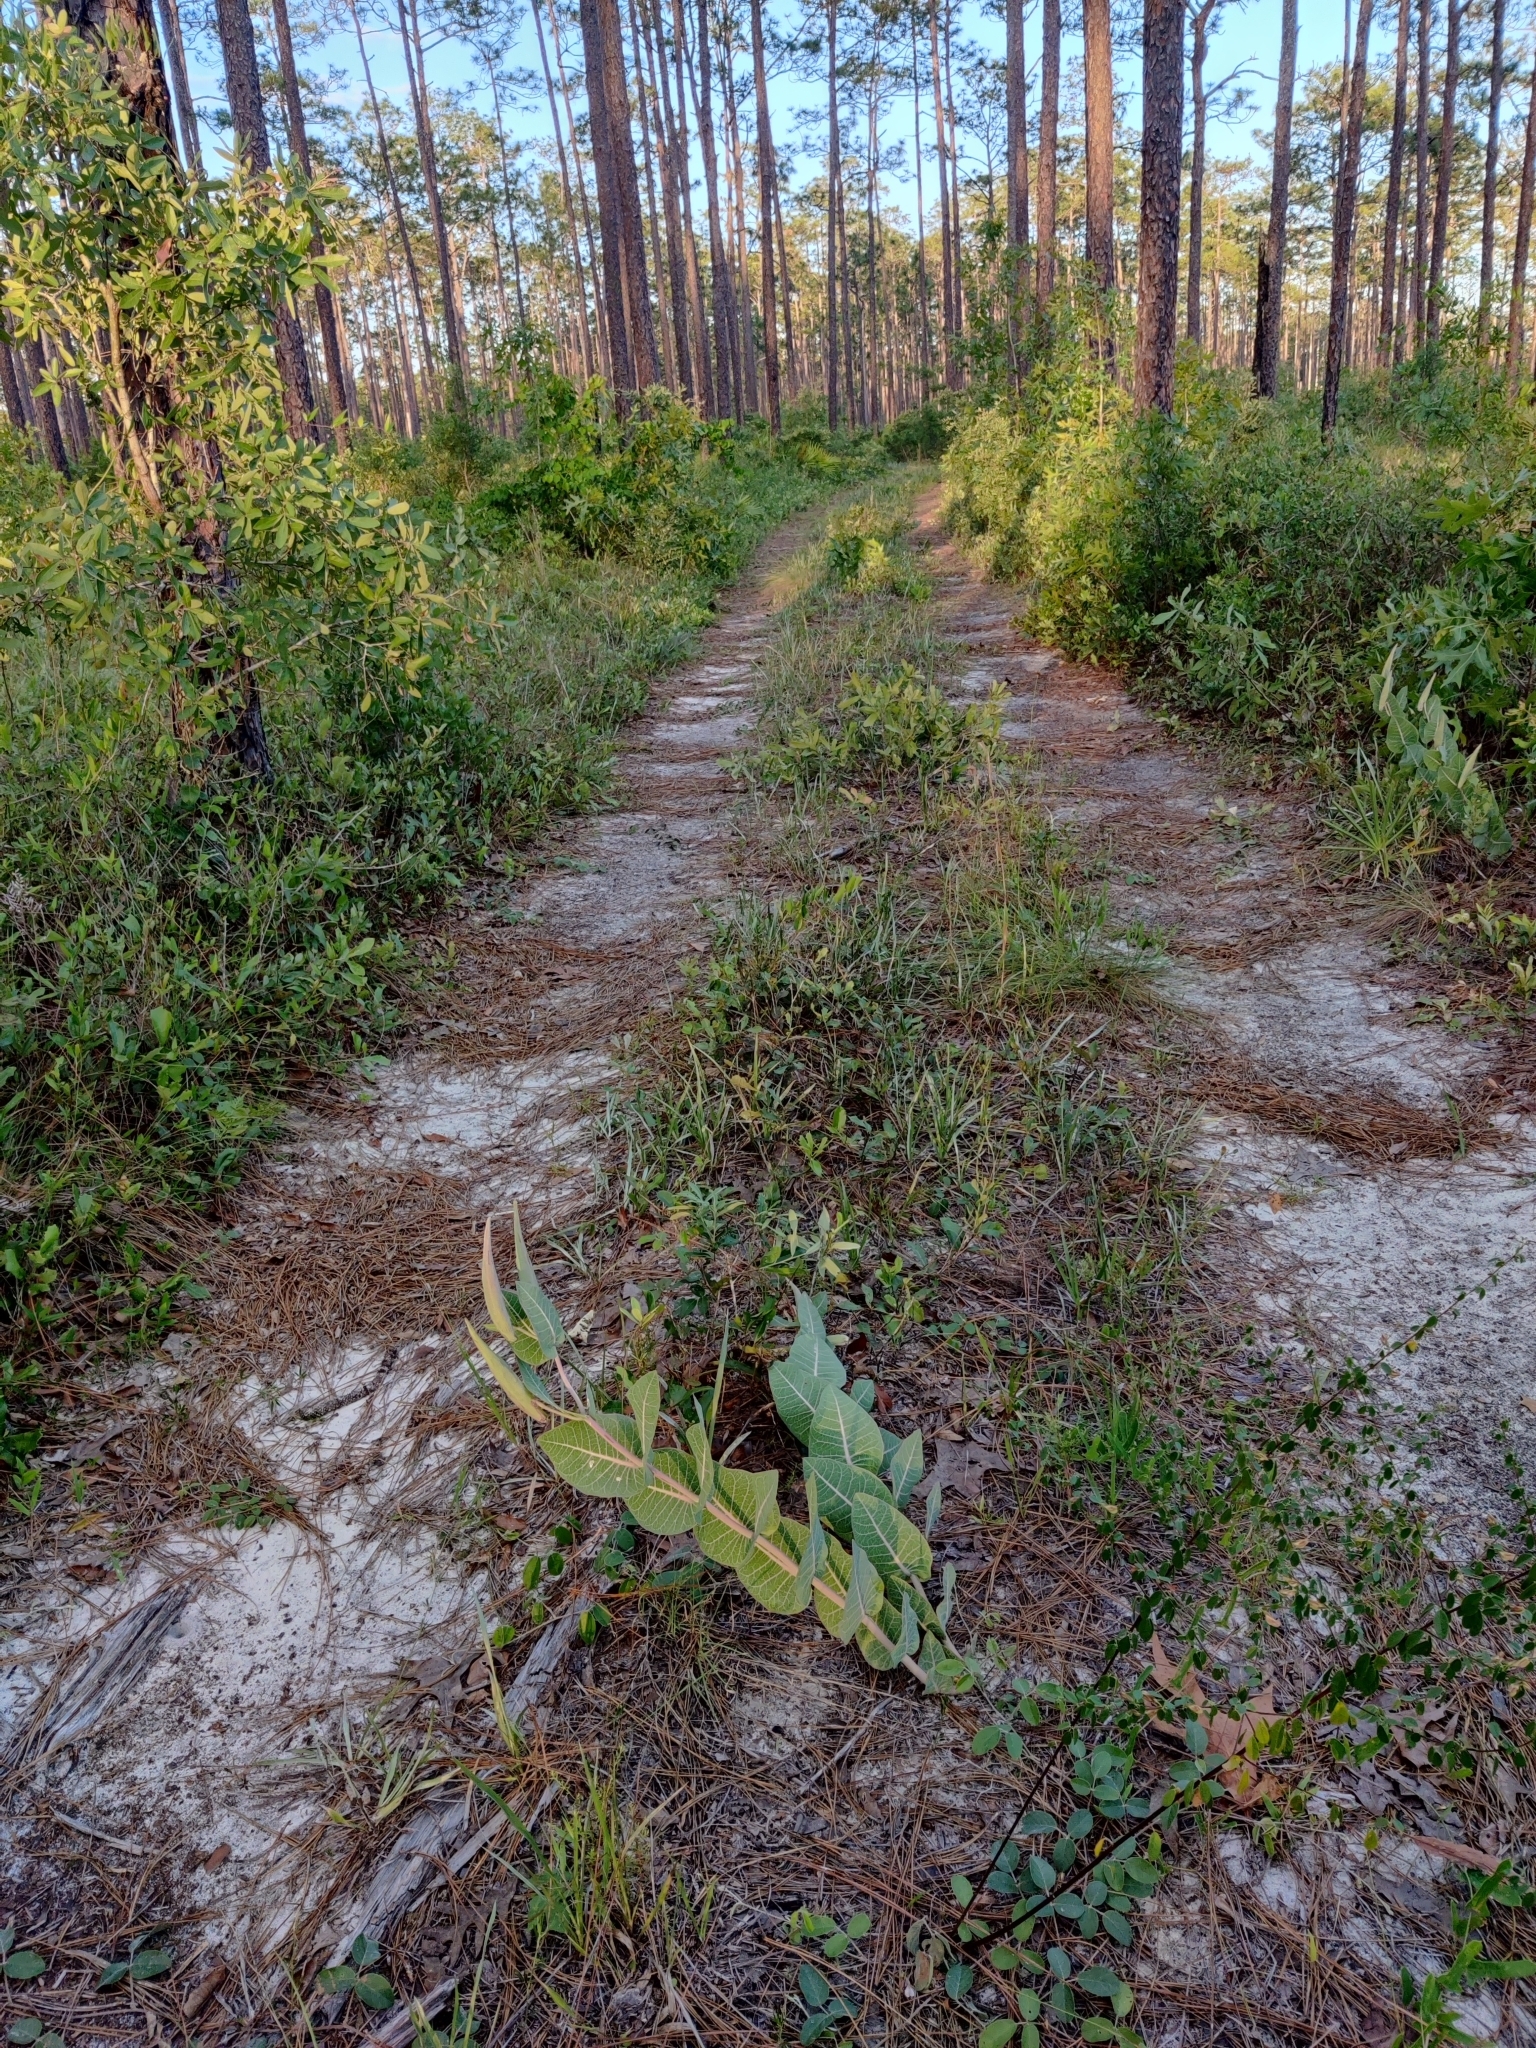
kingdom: Plantae
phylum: Tracheophyta
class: Magnoliopsida
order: Gentianales
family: Apocynaceae
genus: Asclepias
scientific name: Asclepias humistrata
